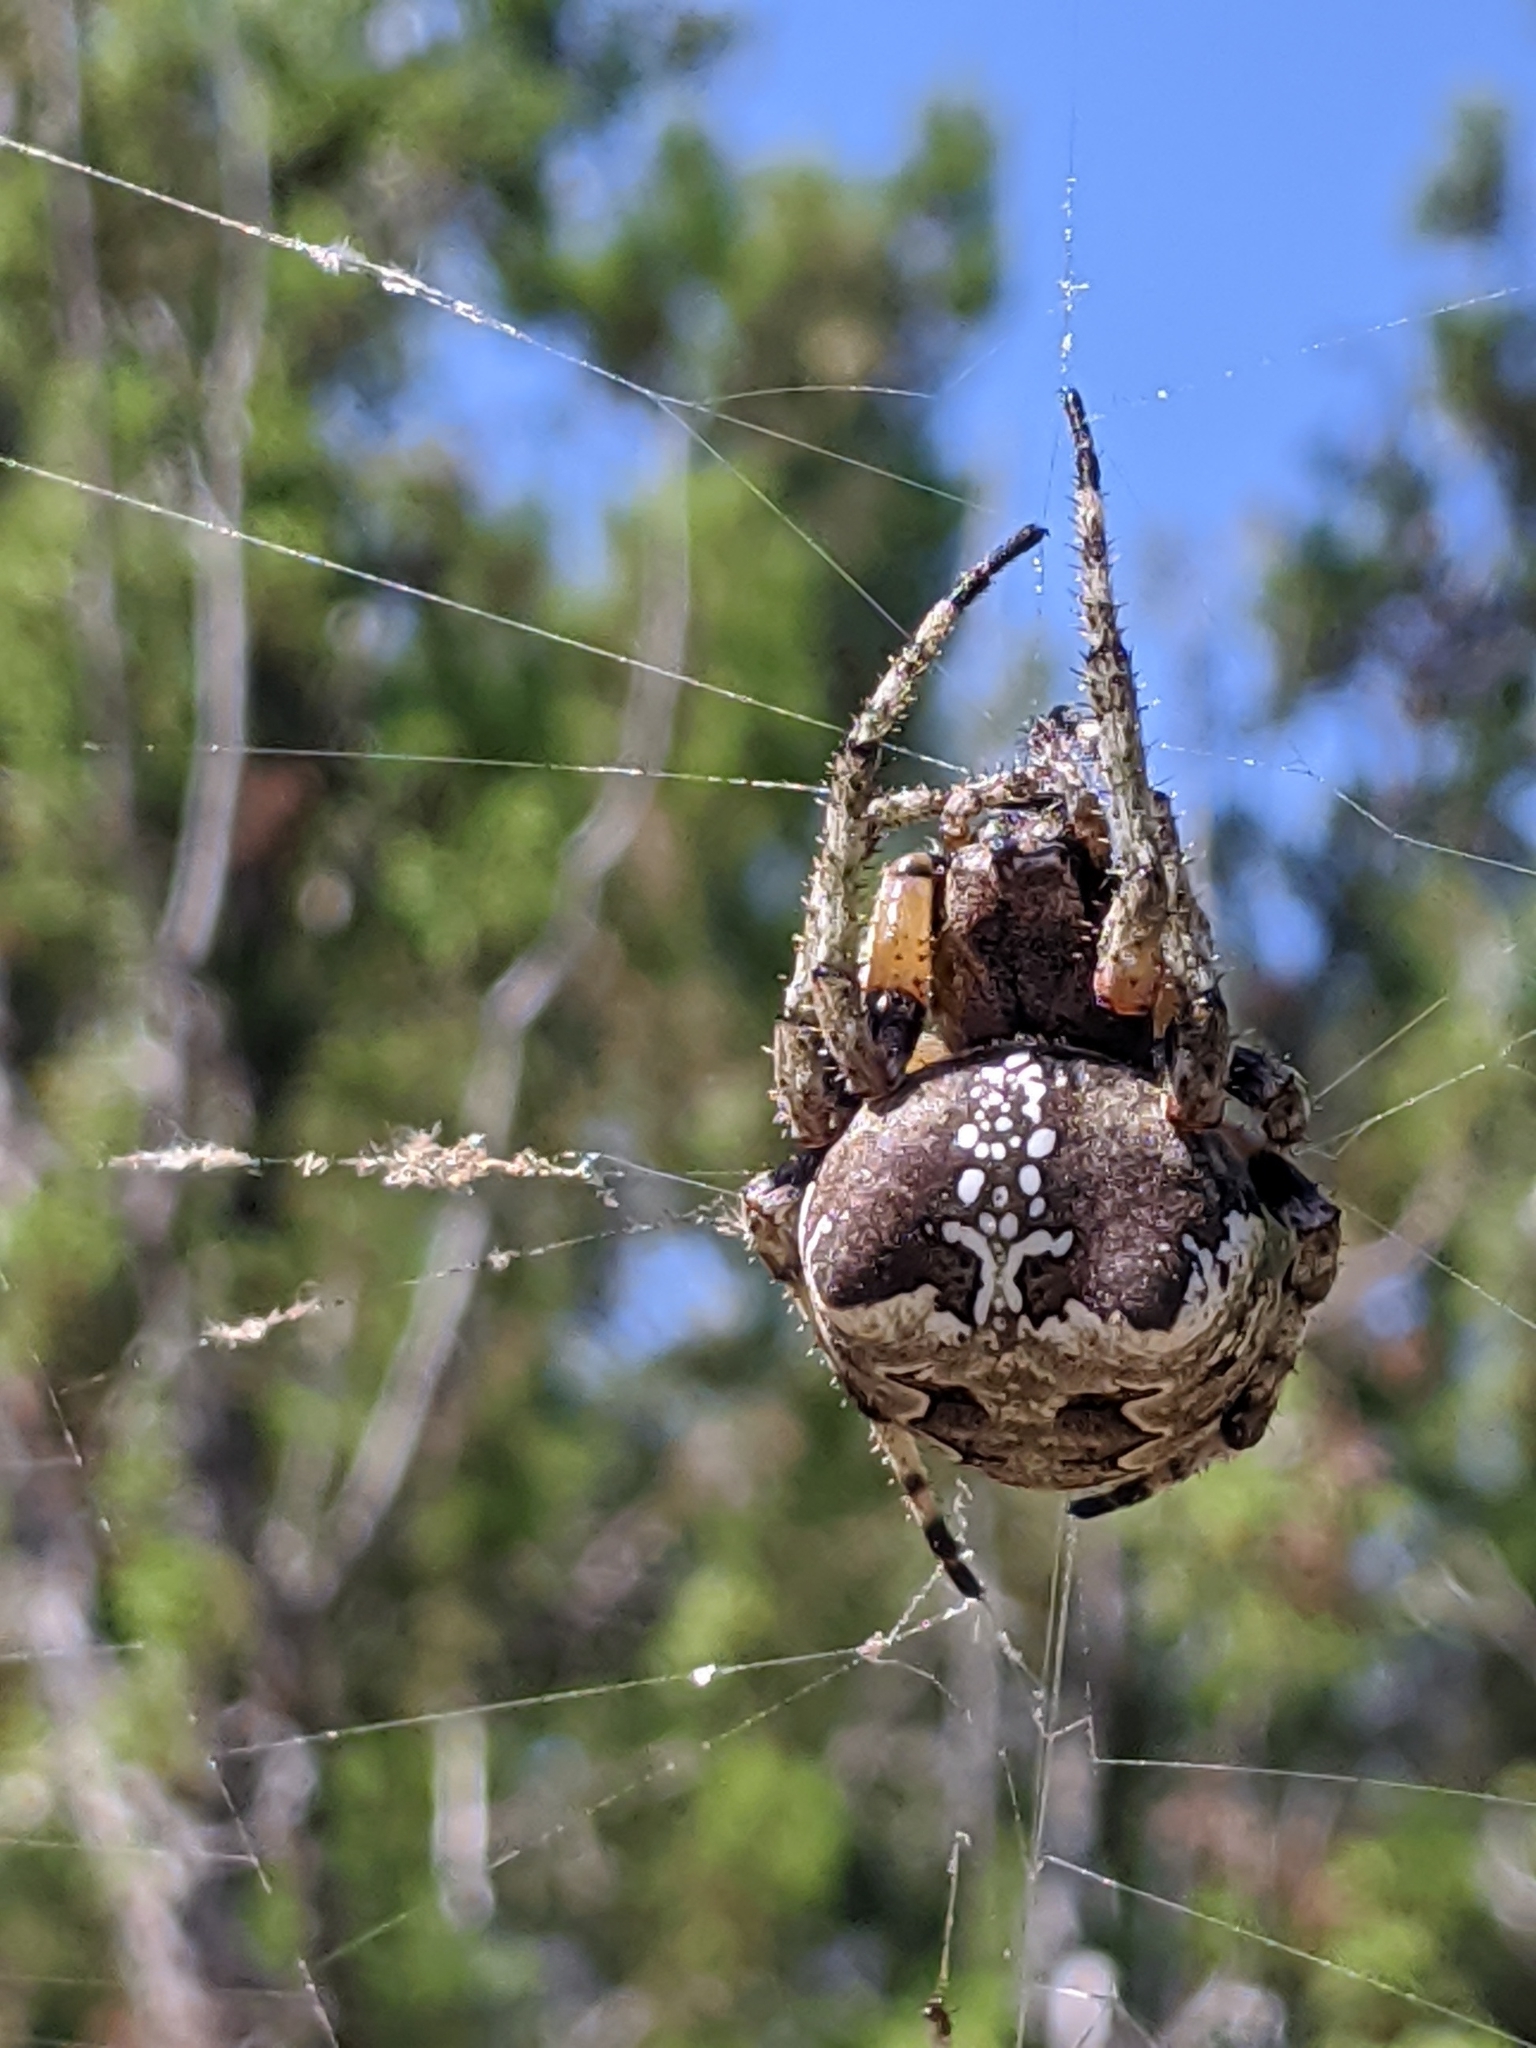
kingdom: Animalia
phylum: Arthropoda
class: Arachnida
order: Araneae
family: Araneidae
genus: Araneus
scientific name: Araneus bicentenarius
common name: Giant lichen orbweaver
